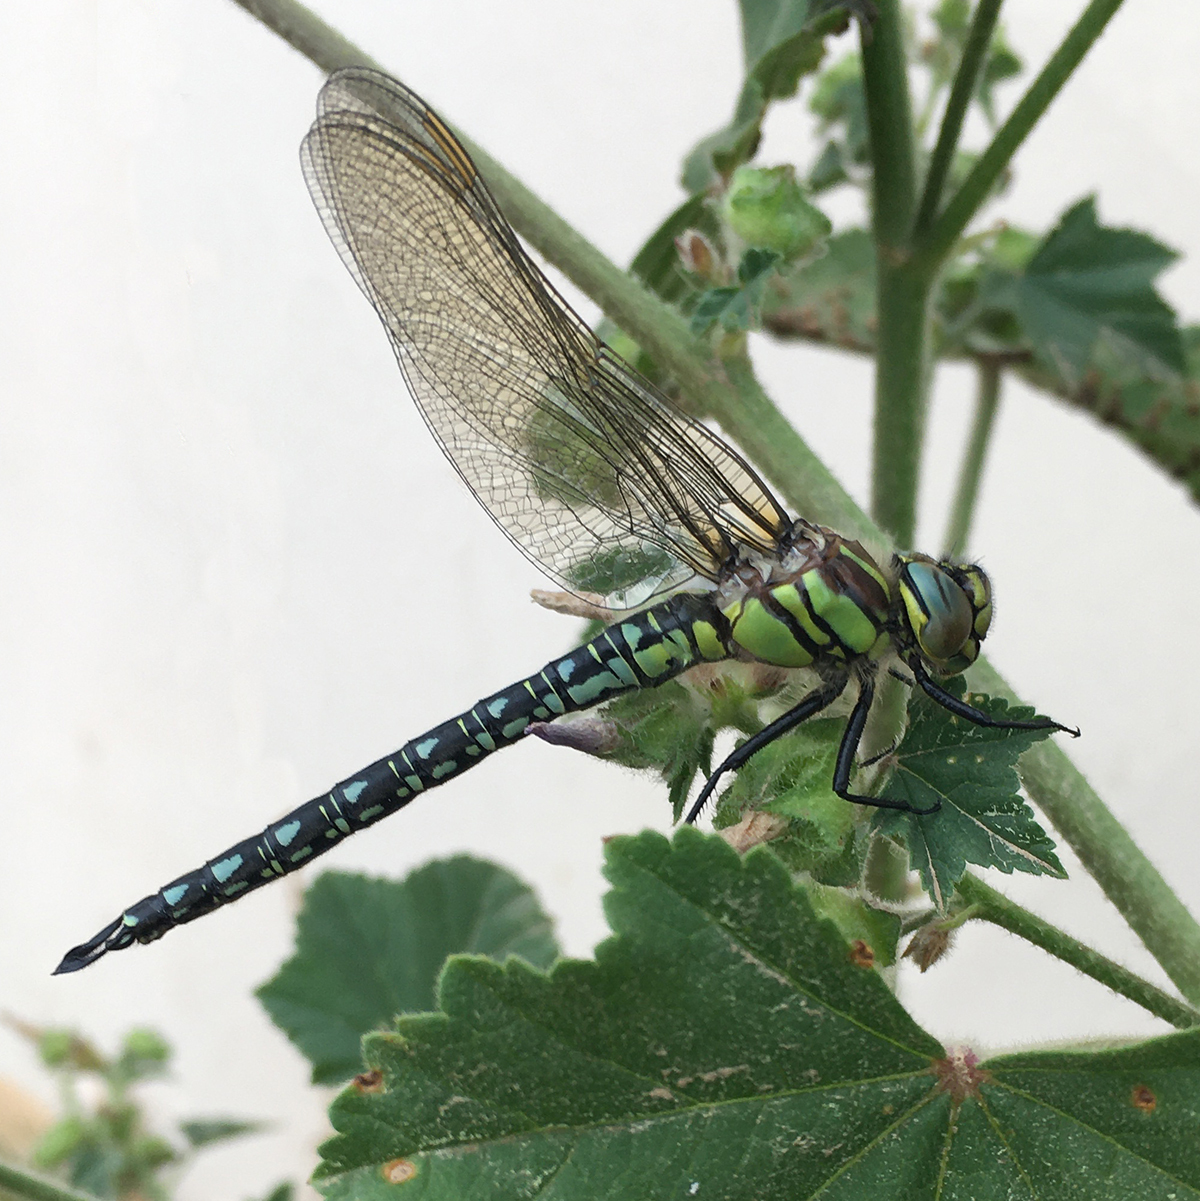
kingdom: Animalia
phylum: Arthropoda
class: Insecta
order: Odonata
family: Aeshnidae
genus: Brachytron
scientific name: Brachytron pratense
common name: Hairy hawker
